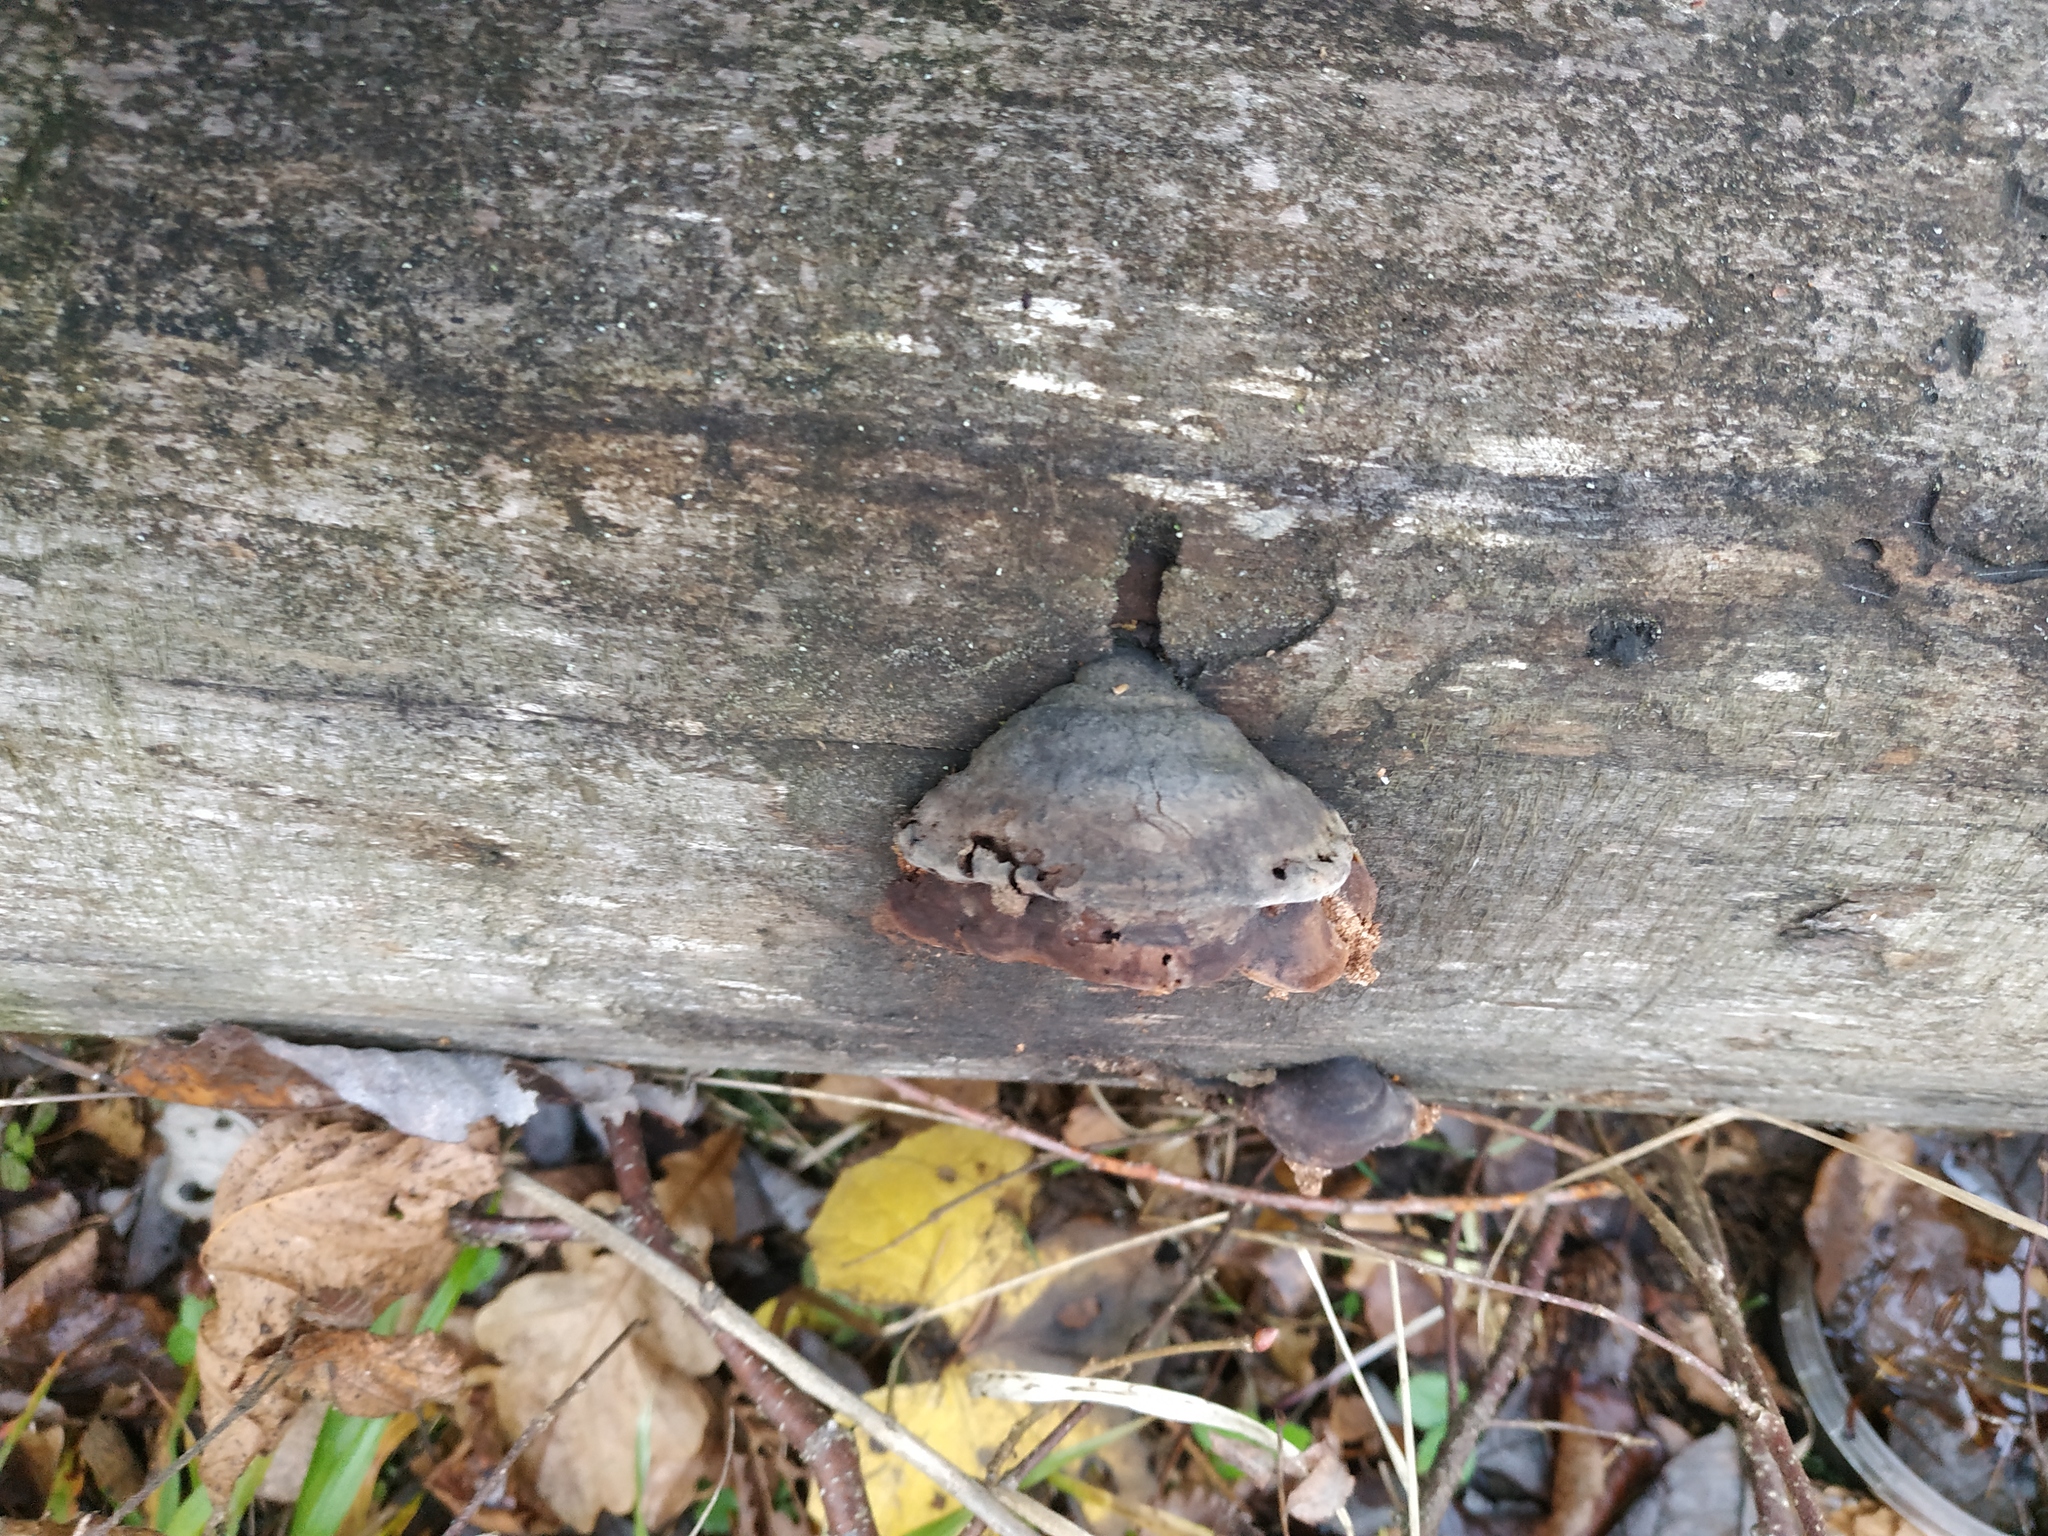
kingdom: Fungi
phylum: Basidiomycota
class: Agaricomycetes
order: Polyporales
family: Polyporaceae
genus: Fomes
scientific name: Fomes fomentarius
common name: Hoof fungus
